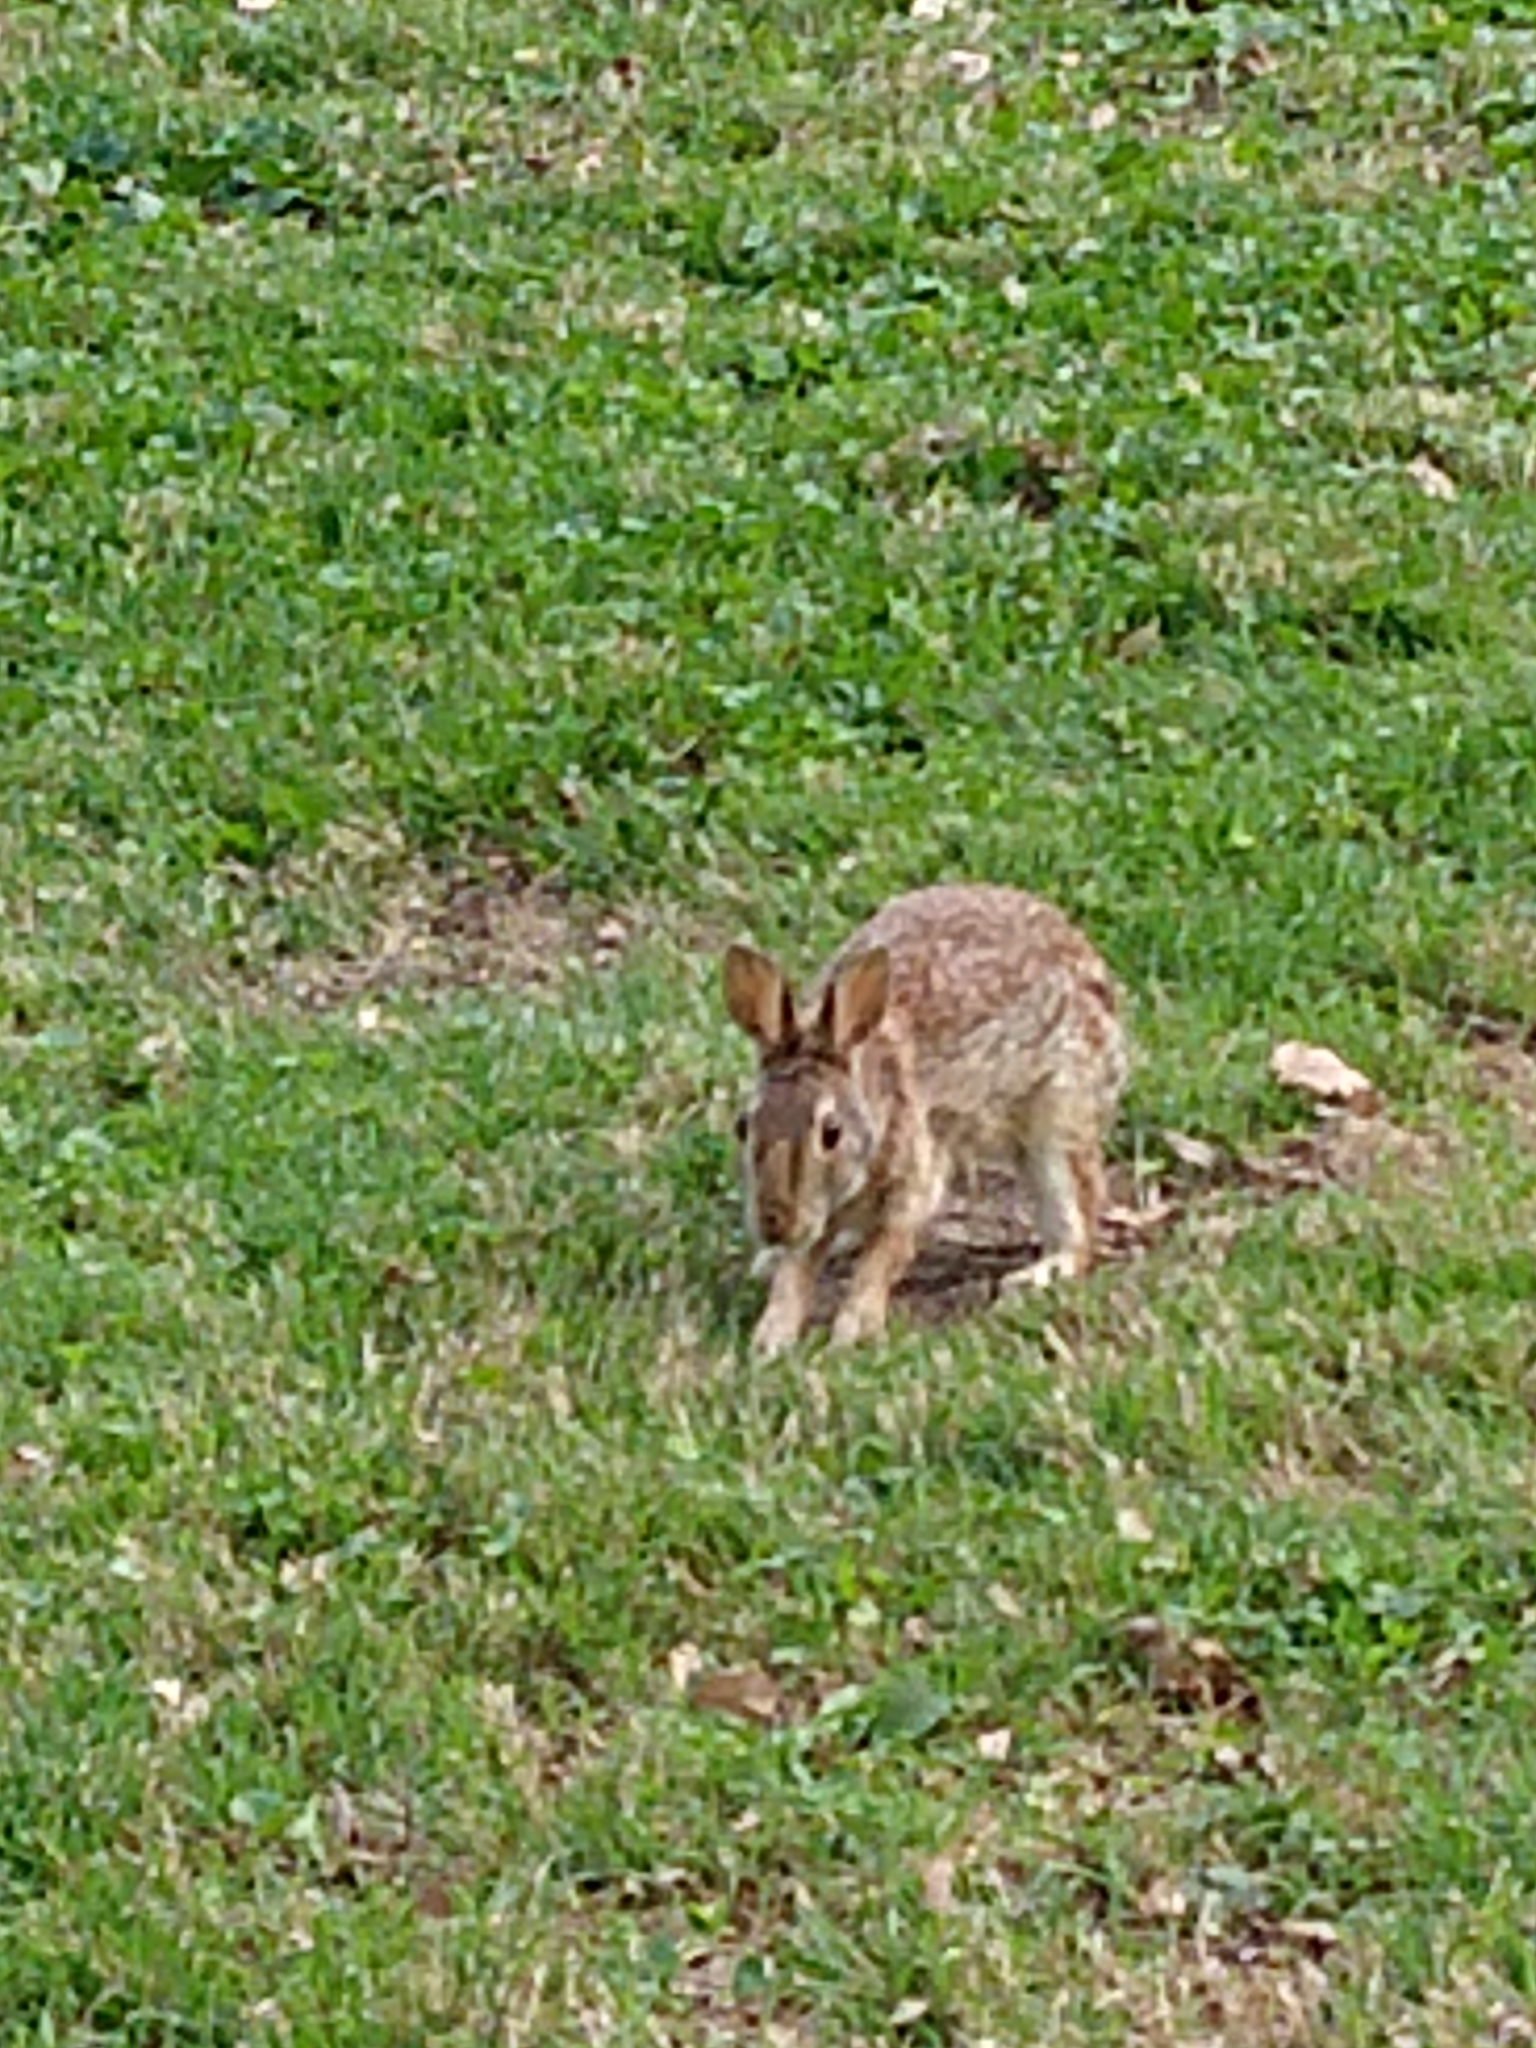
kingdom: Animalia
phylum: Chordata
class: Mammalia
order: Lagomorpha
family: Leporidae
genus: Sylvilagus
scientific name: Sylvilagus floridanus
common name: Eastern cottontail
